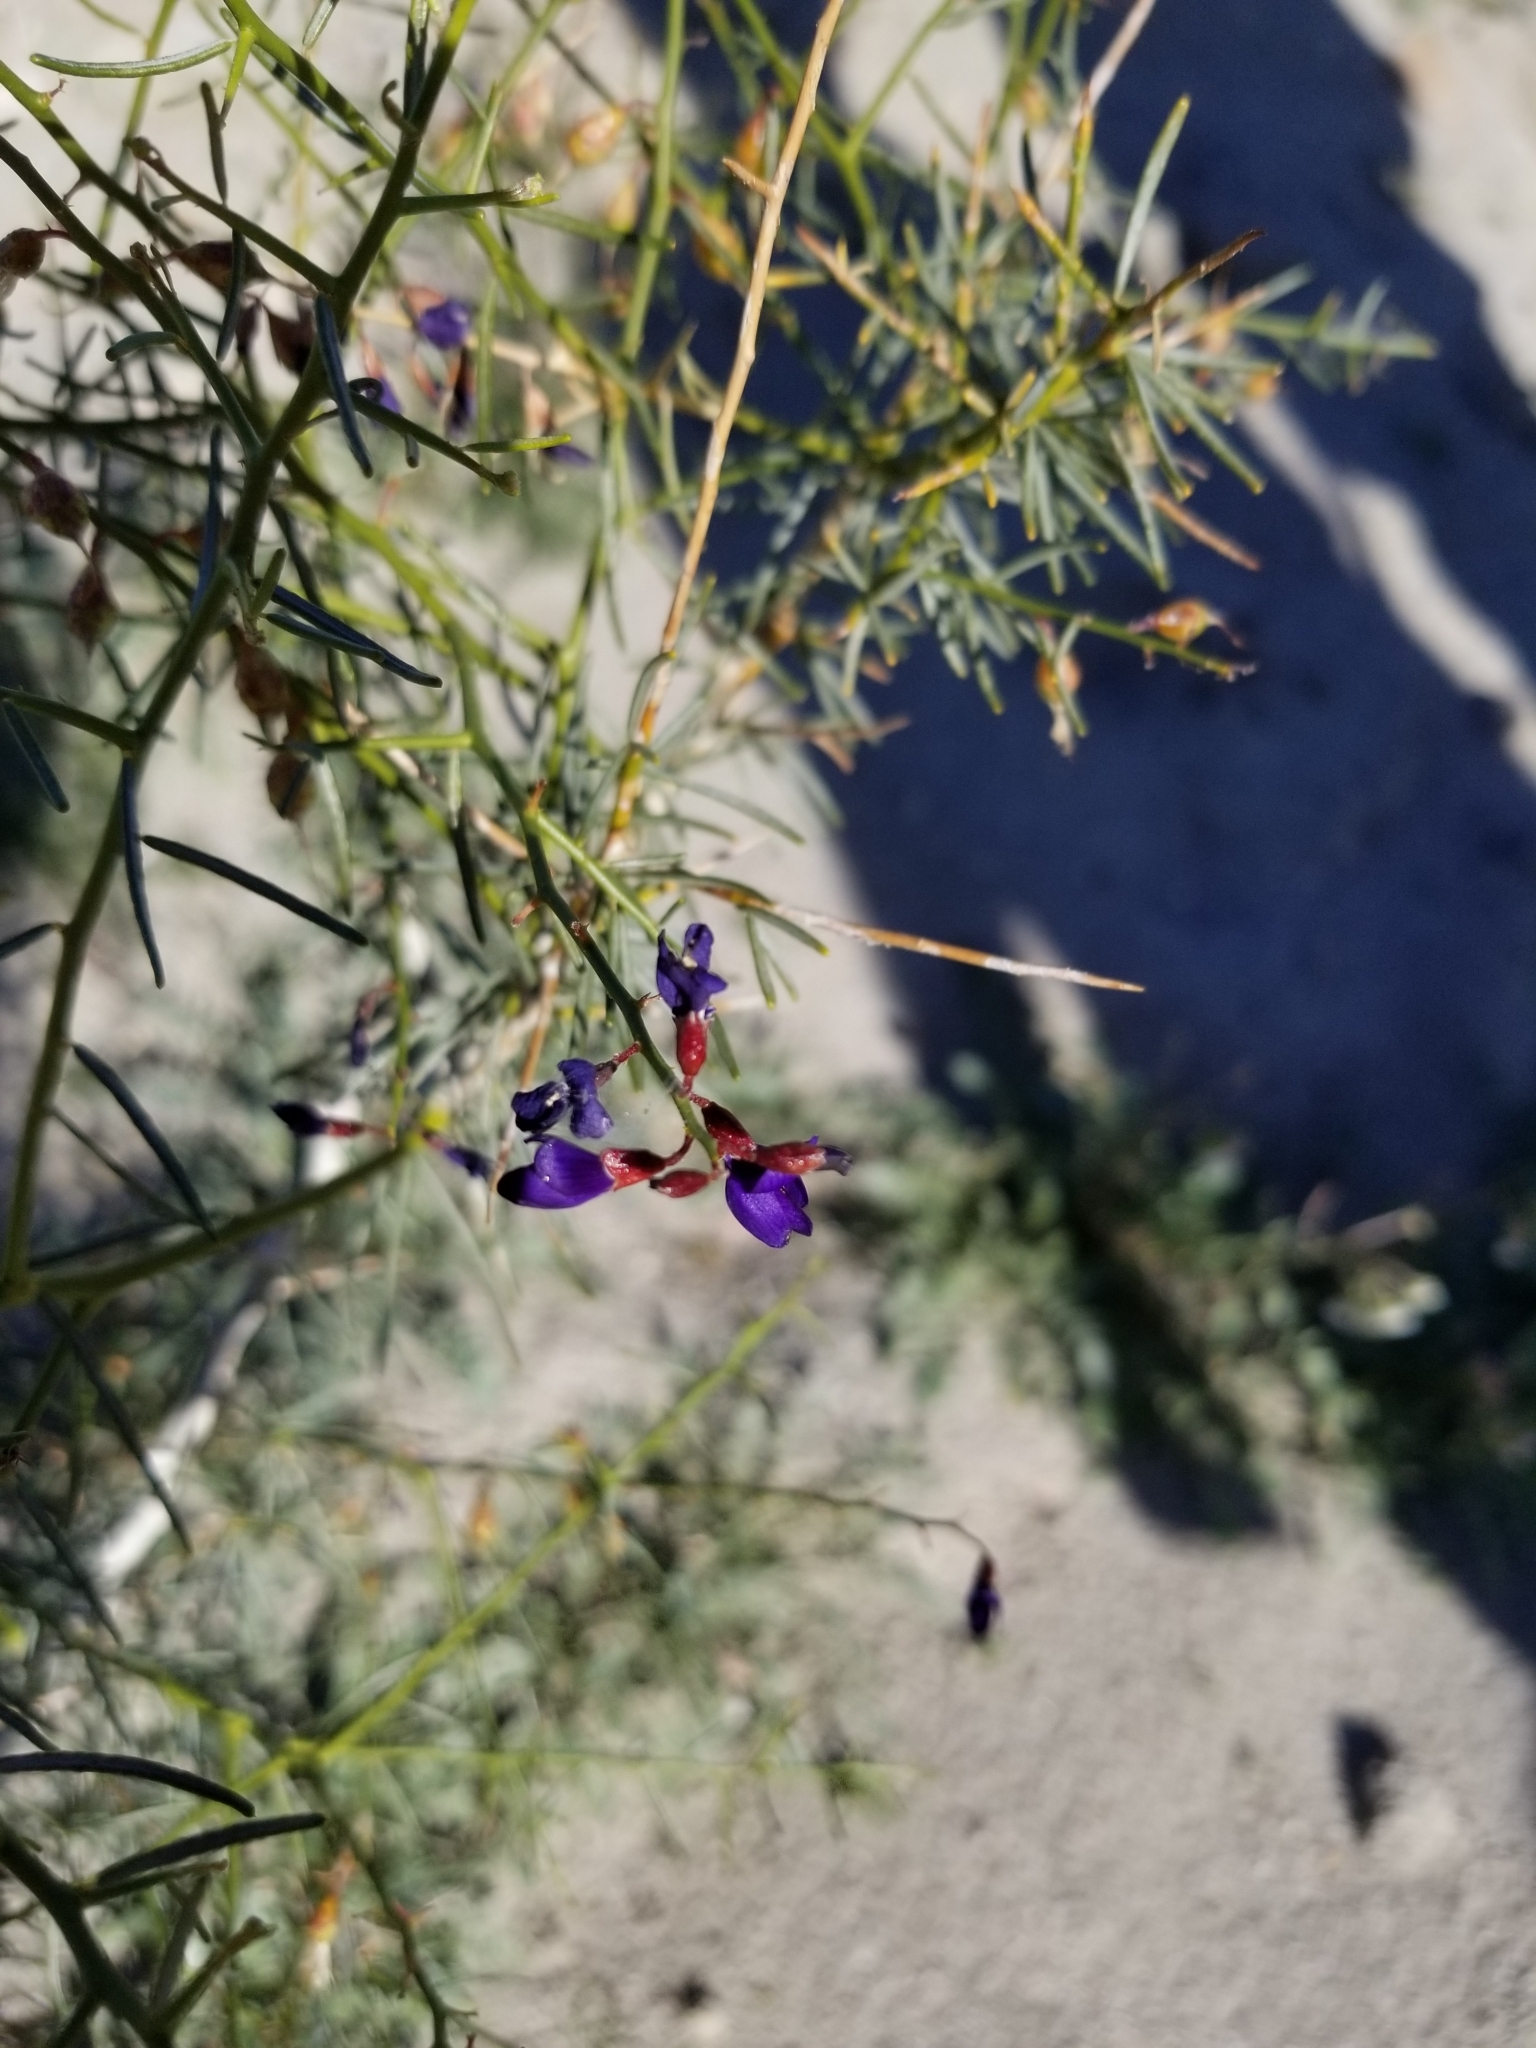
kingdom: Plantae
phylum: Tracheophyta
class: Magnoliopsida
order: Fabales
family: Fabaceae
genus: Psorothamnus
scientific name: Psorothamnus schottii
